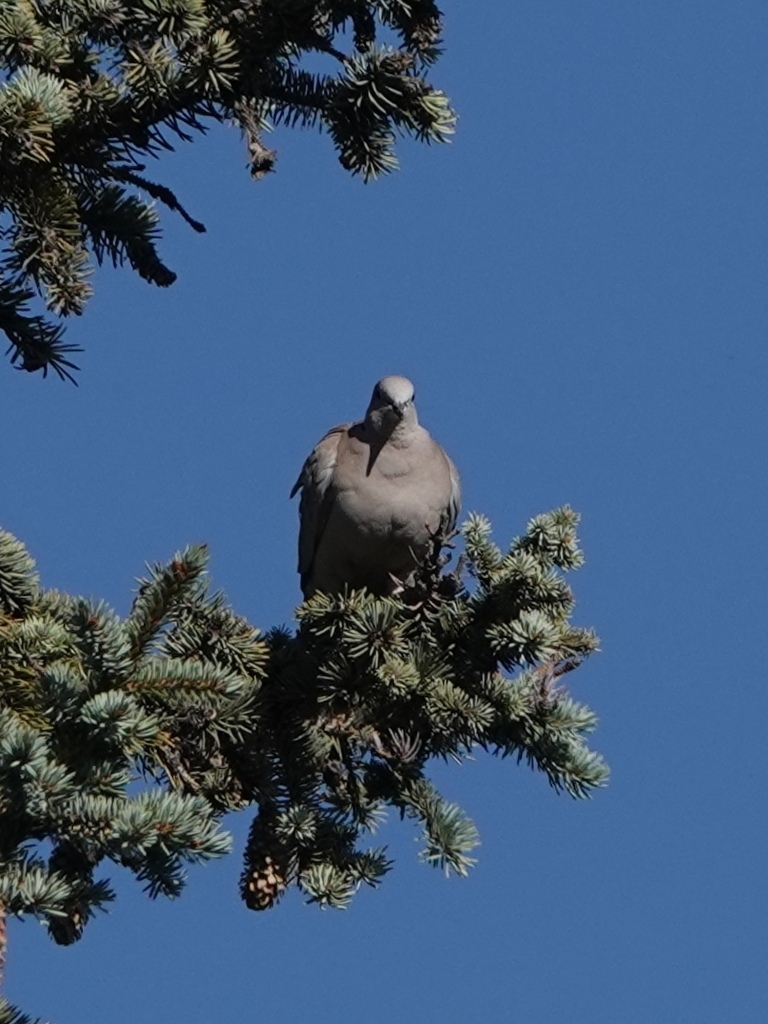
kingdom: Animalia
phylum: Chordata
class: Aves
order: Columbiformes
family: Columbidae
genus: Streptopelia
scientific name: Streptopelia decaocto
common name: Eurasian collared dove
